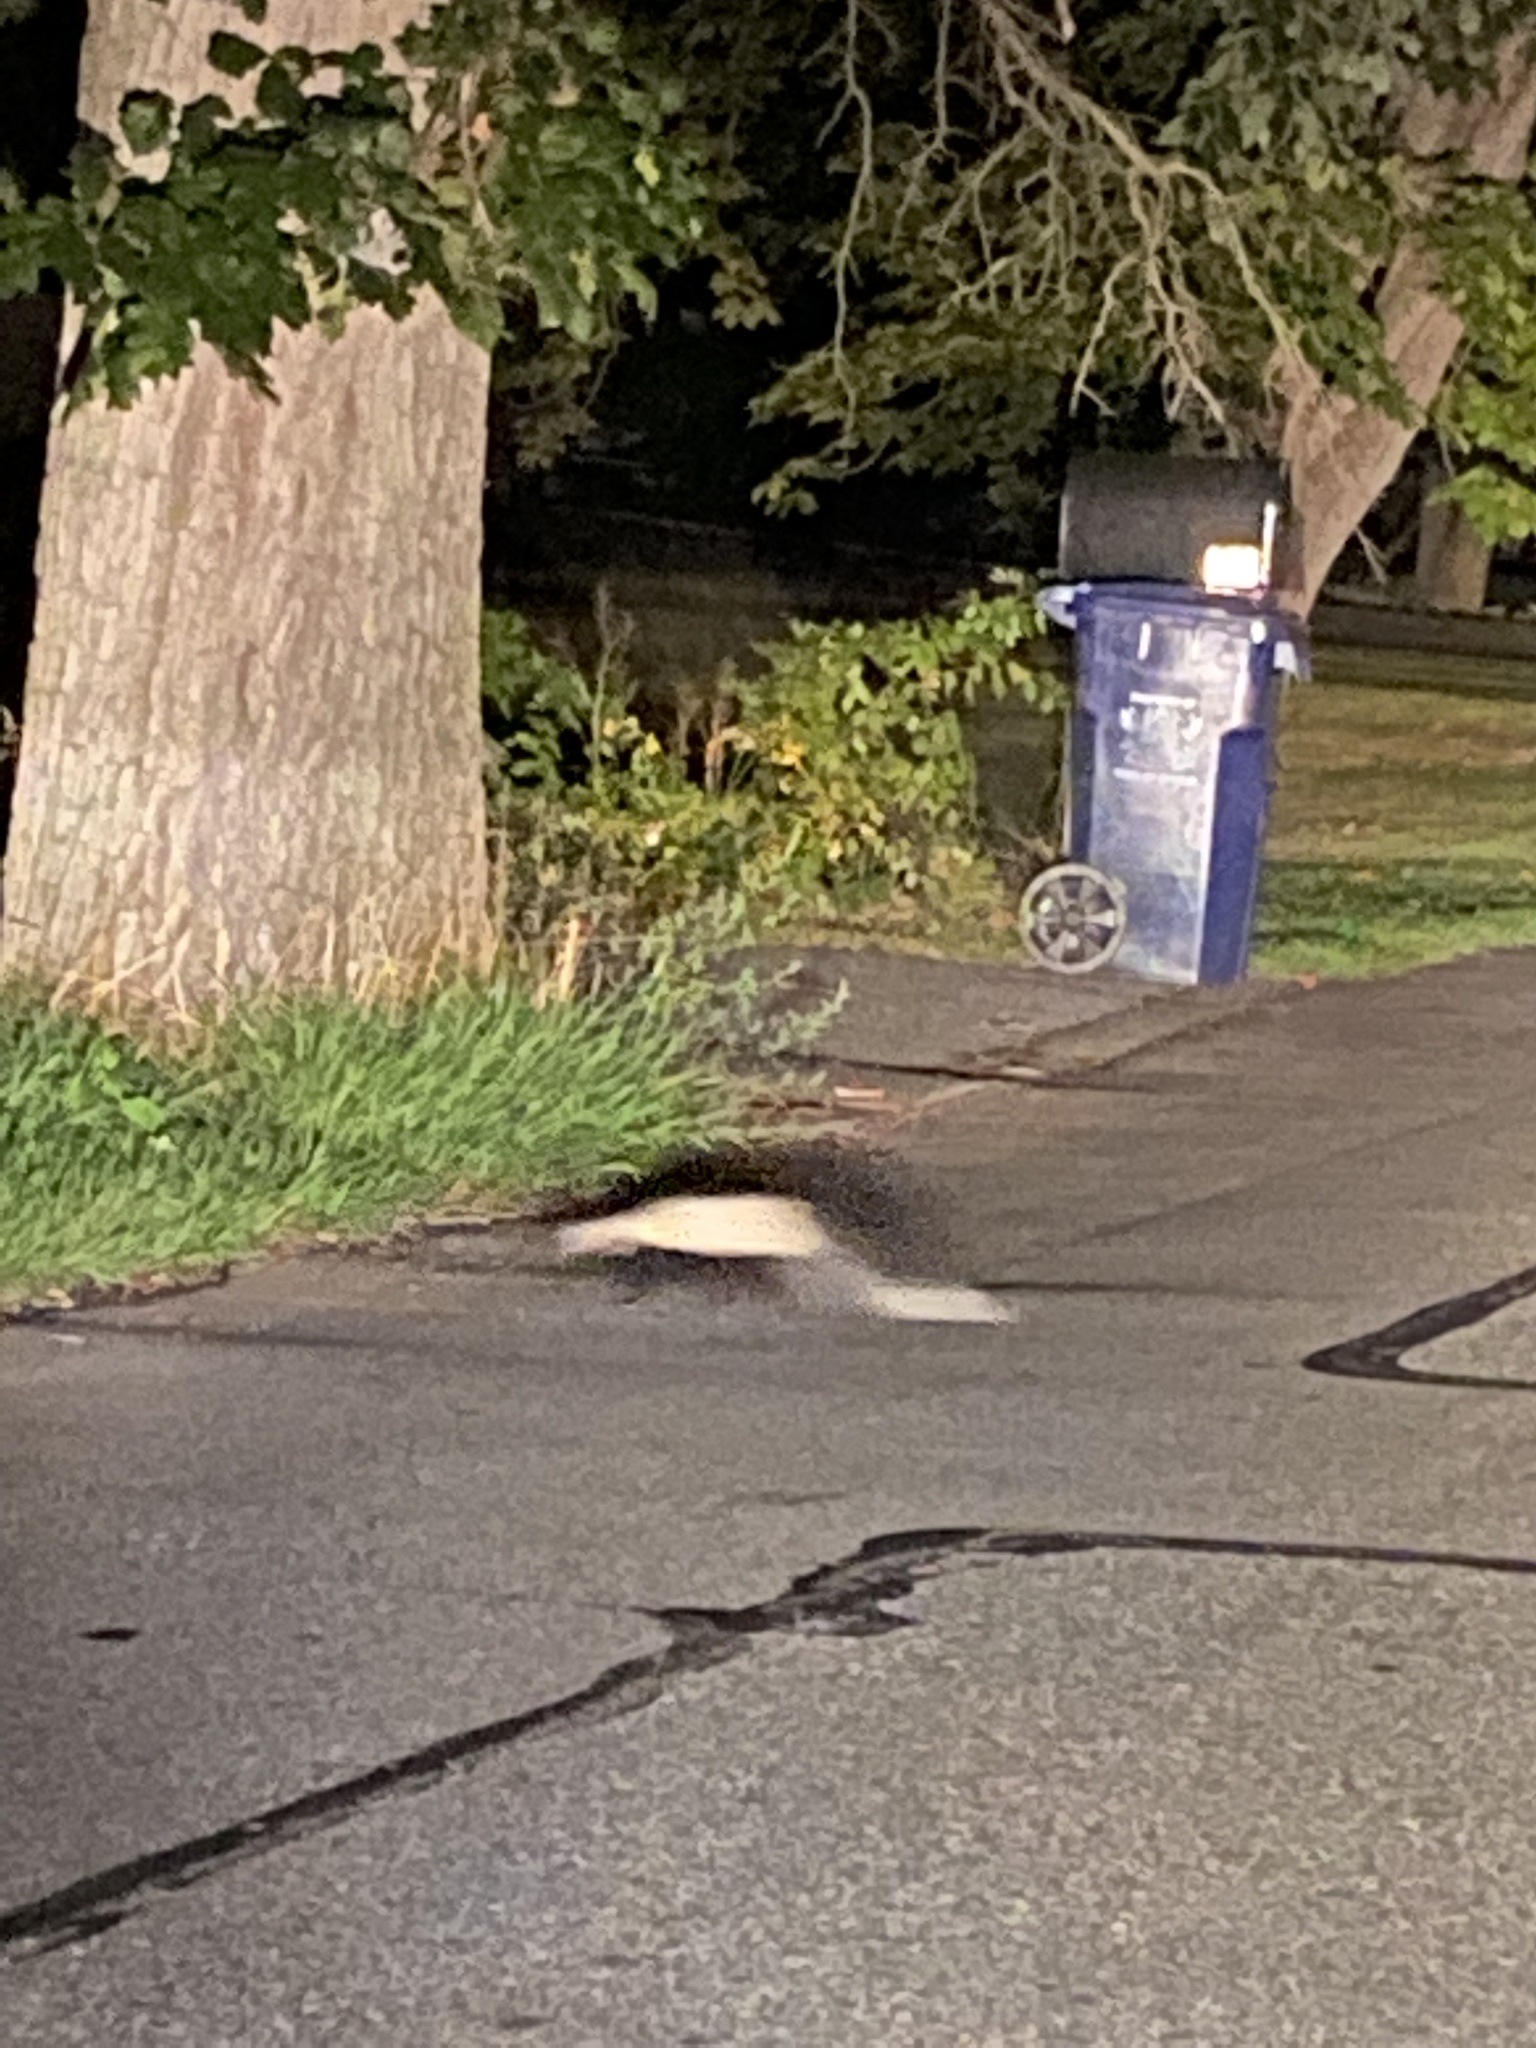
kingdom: Animalia
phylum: Chordata
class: Mammalia
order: Carnivora
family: Mephitidae
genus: Mephitis
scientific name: Mephitis mephitis
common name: Striped skunk
